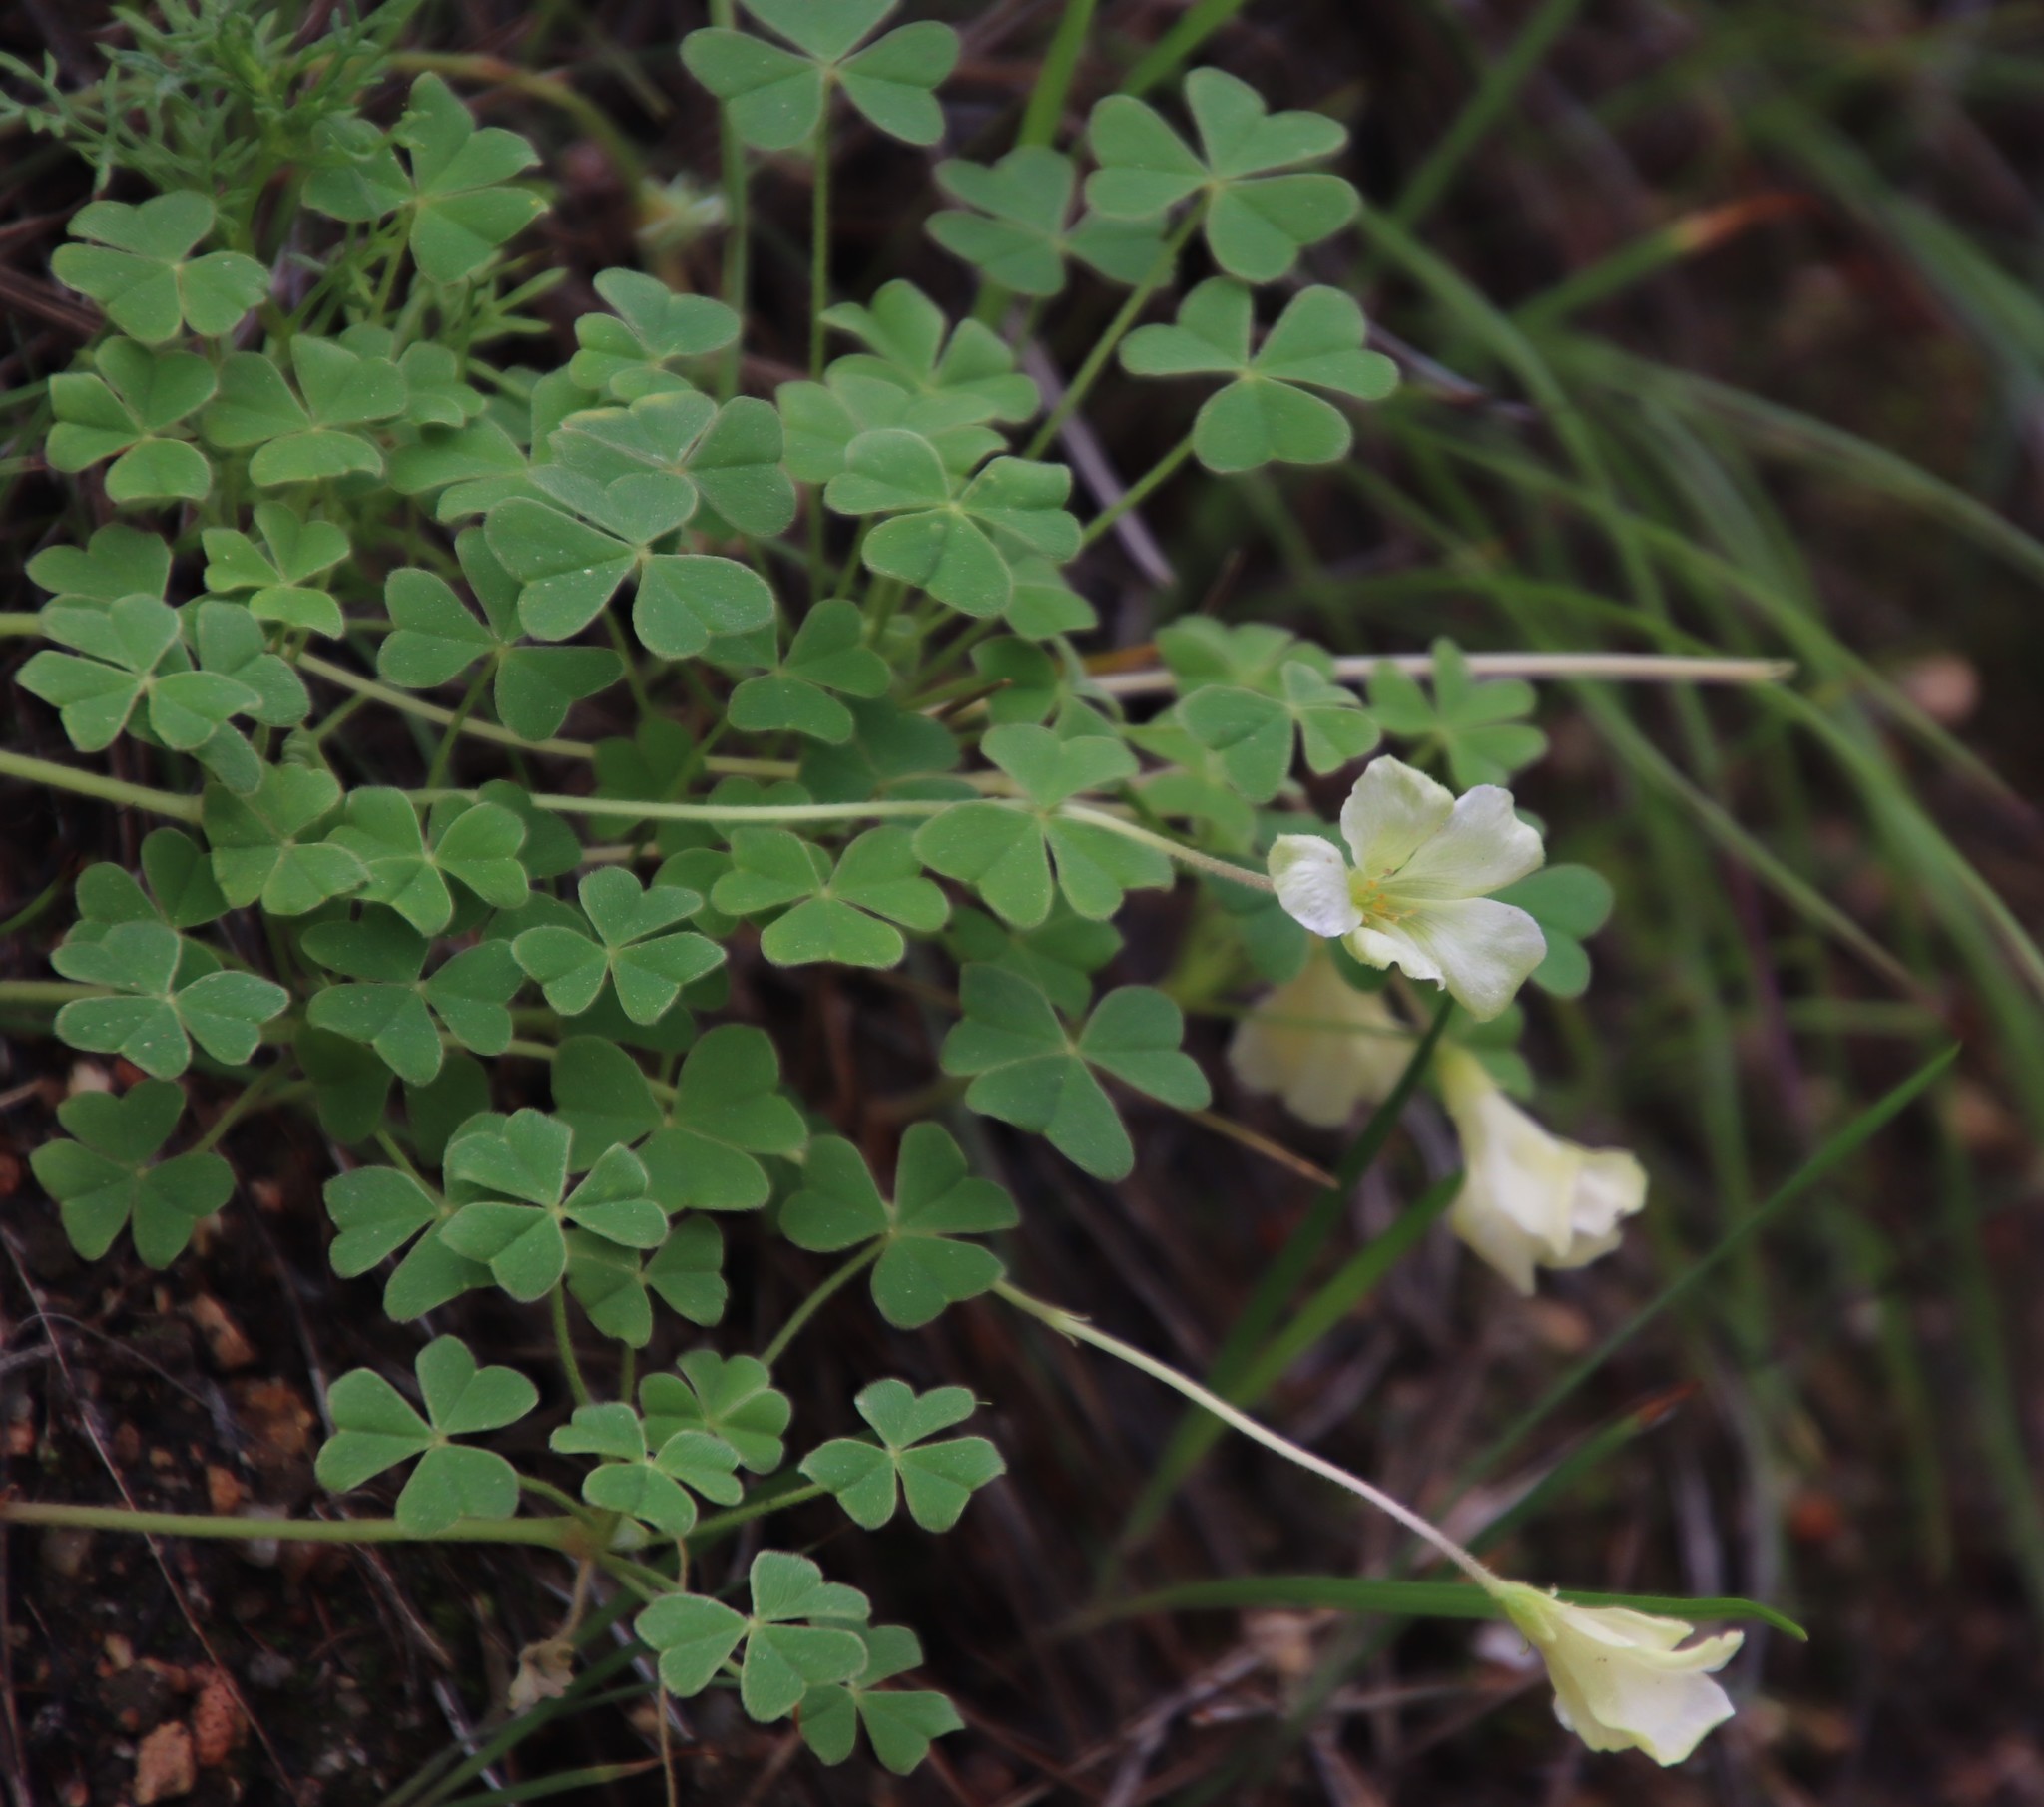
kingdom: Plantae
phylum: Tracheophyta
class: Magnoliopsida
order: Oxalidales
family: Oxalidaceae
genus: Oxalis
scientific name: Oxalis lanata
